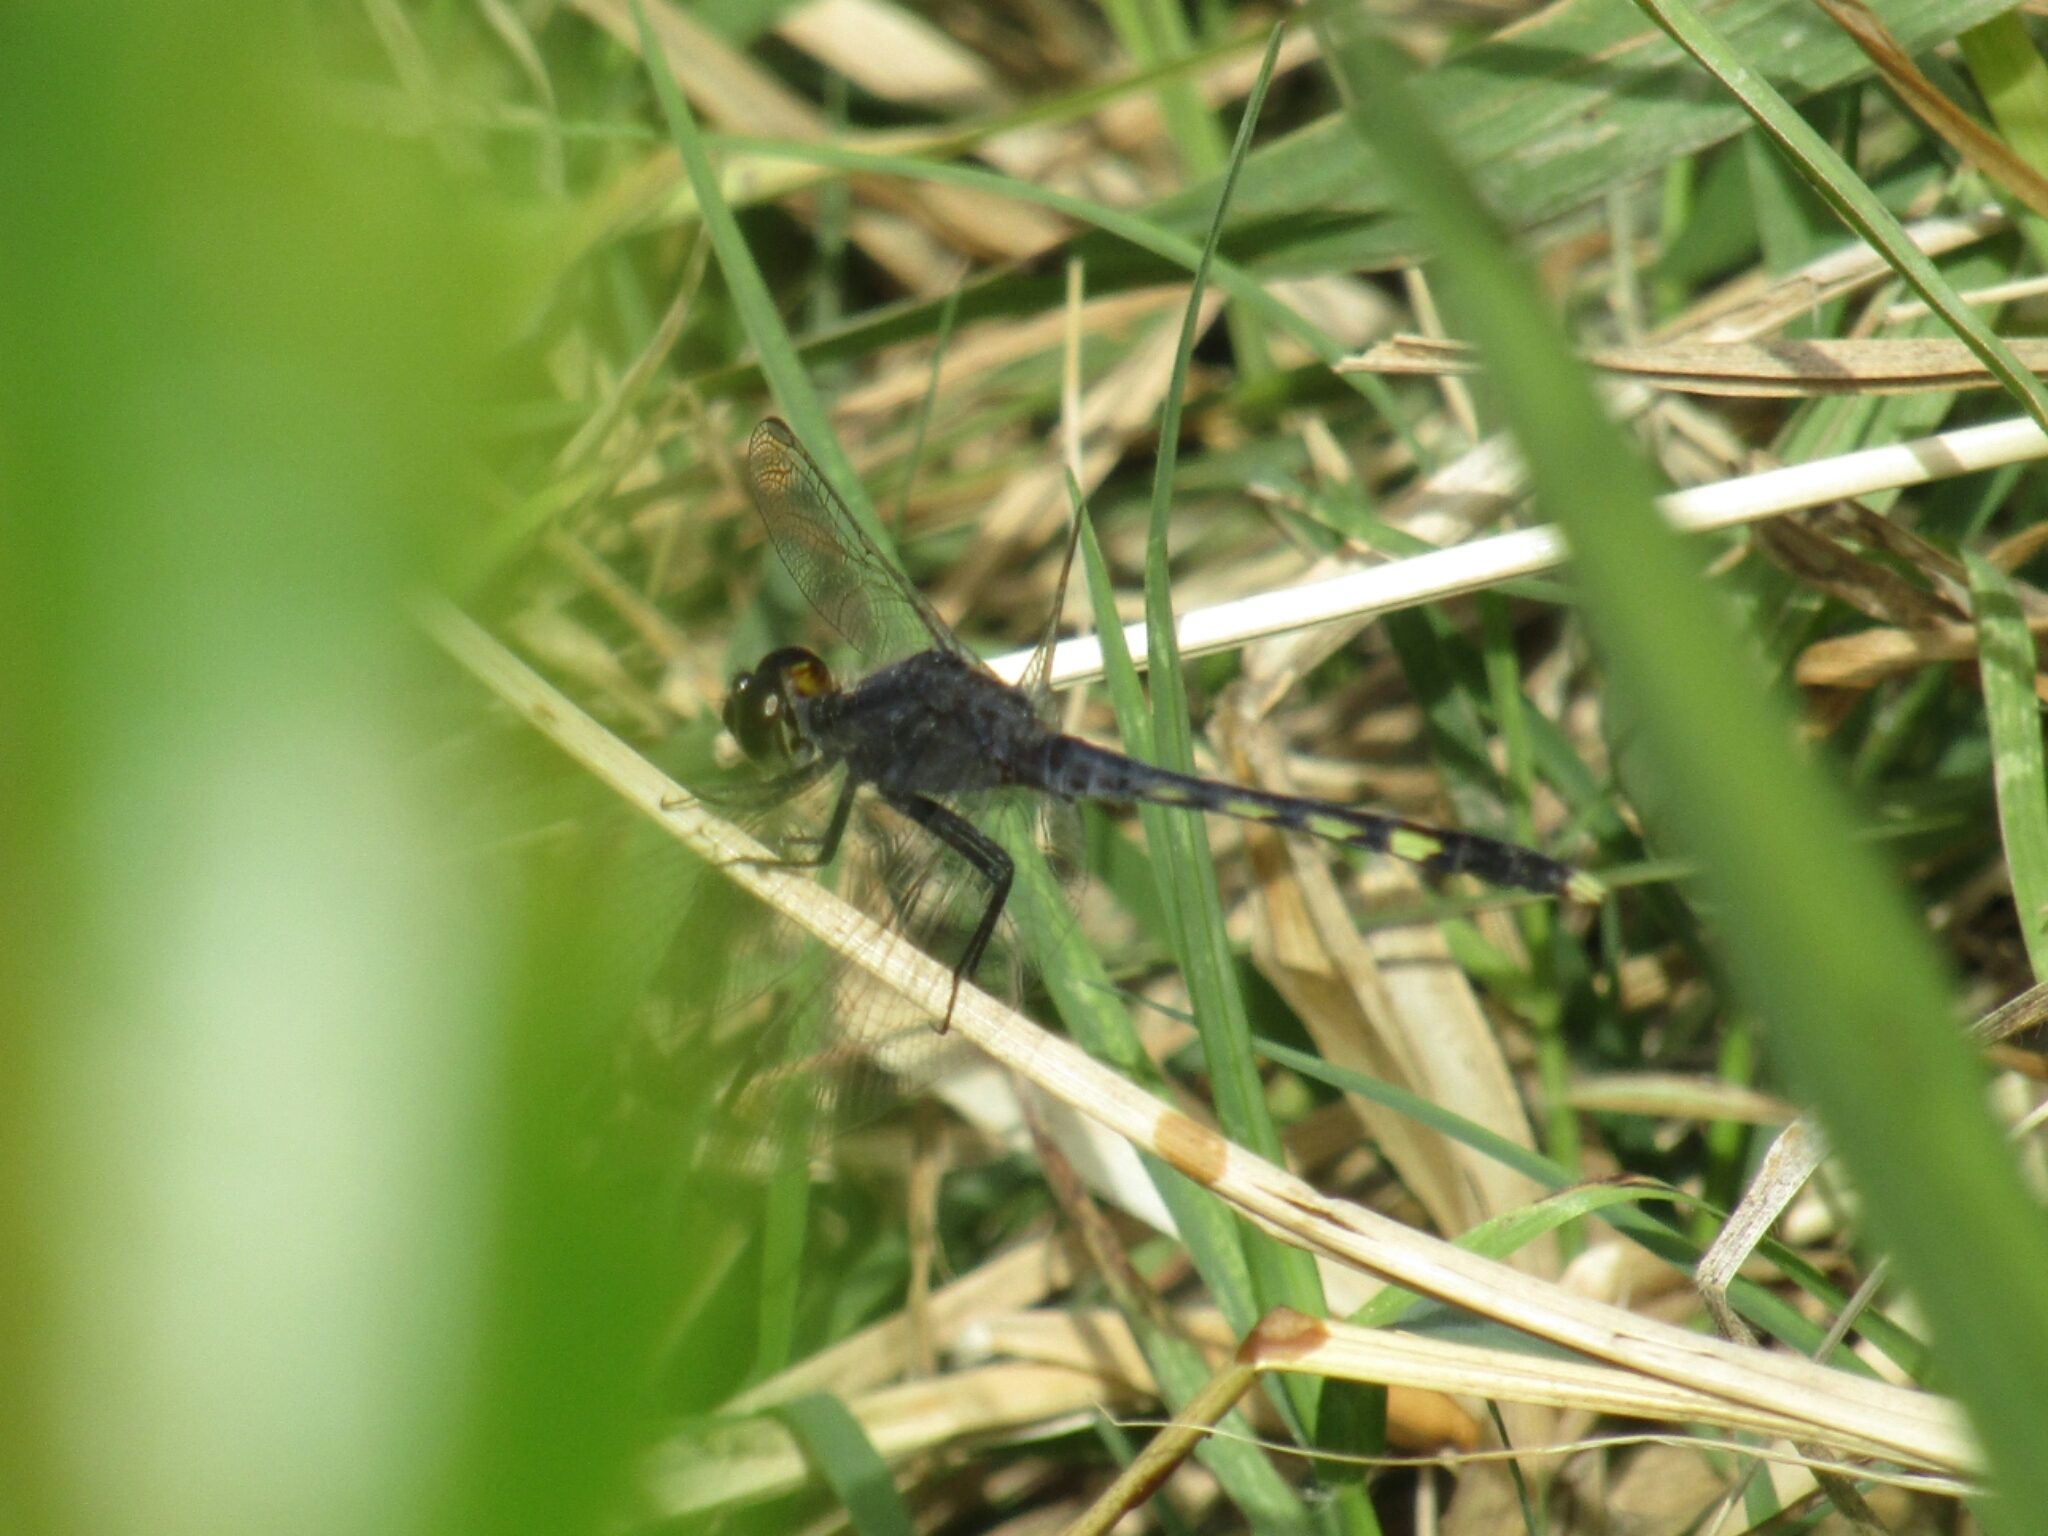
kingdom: Animalia
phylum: Arthropoda
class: Insecta
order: Odonata
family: Libellulidae
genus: Erythrodiplax
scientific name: Erythrodiplax nigricans
